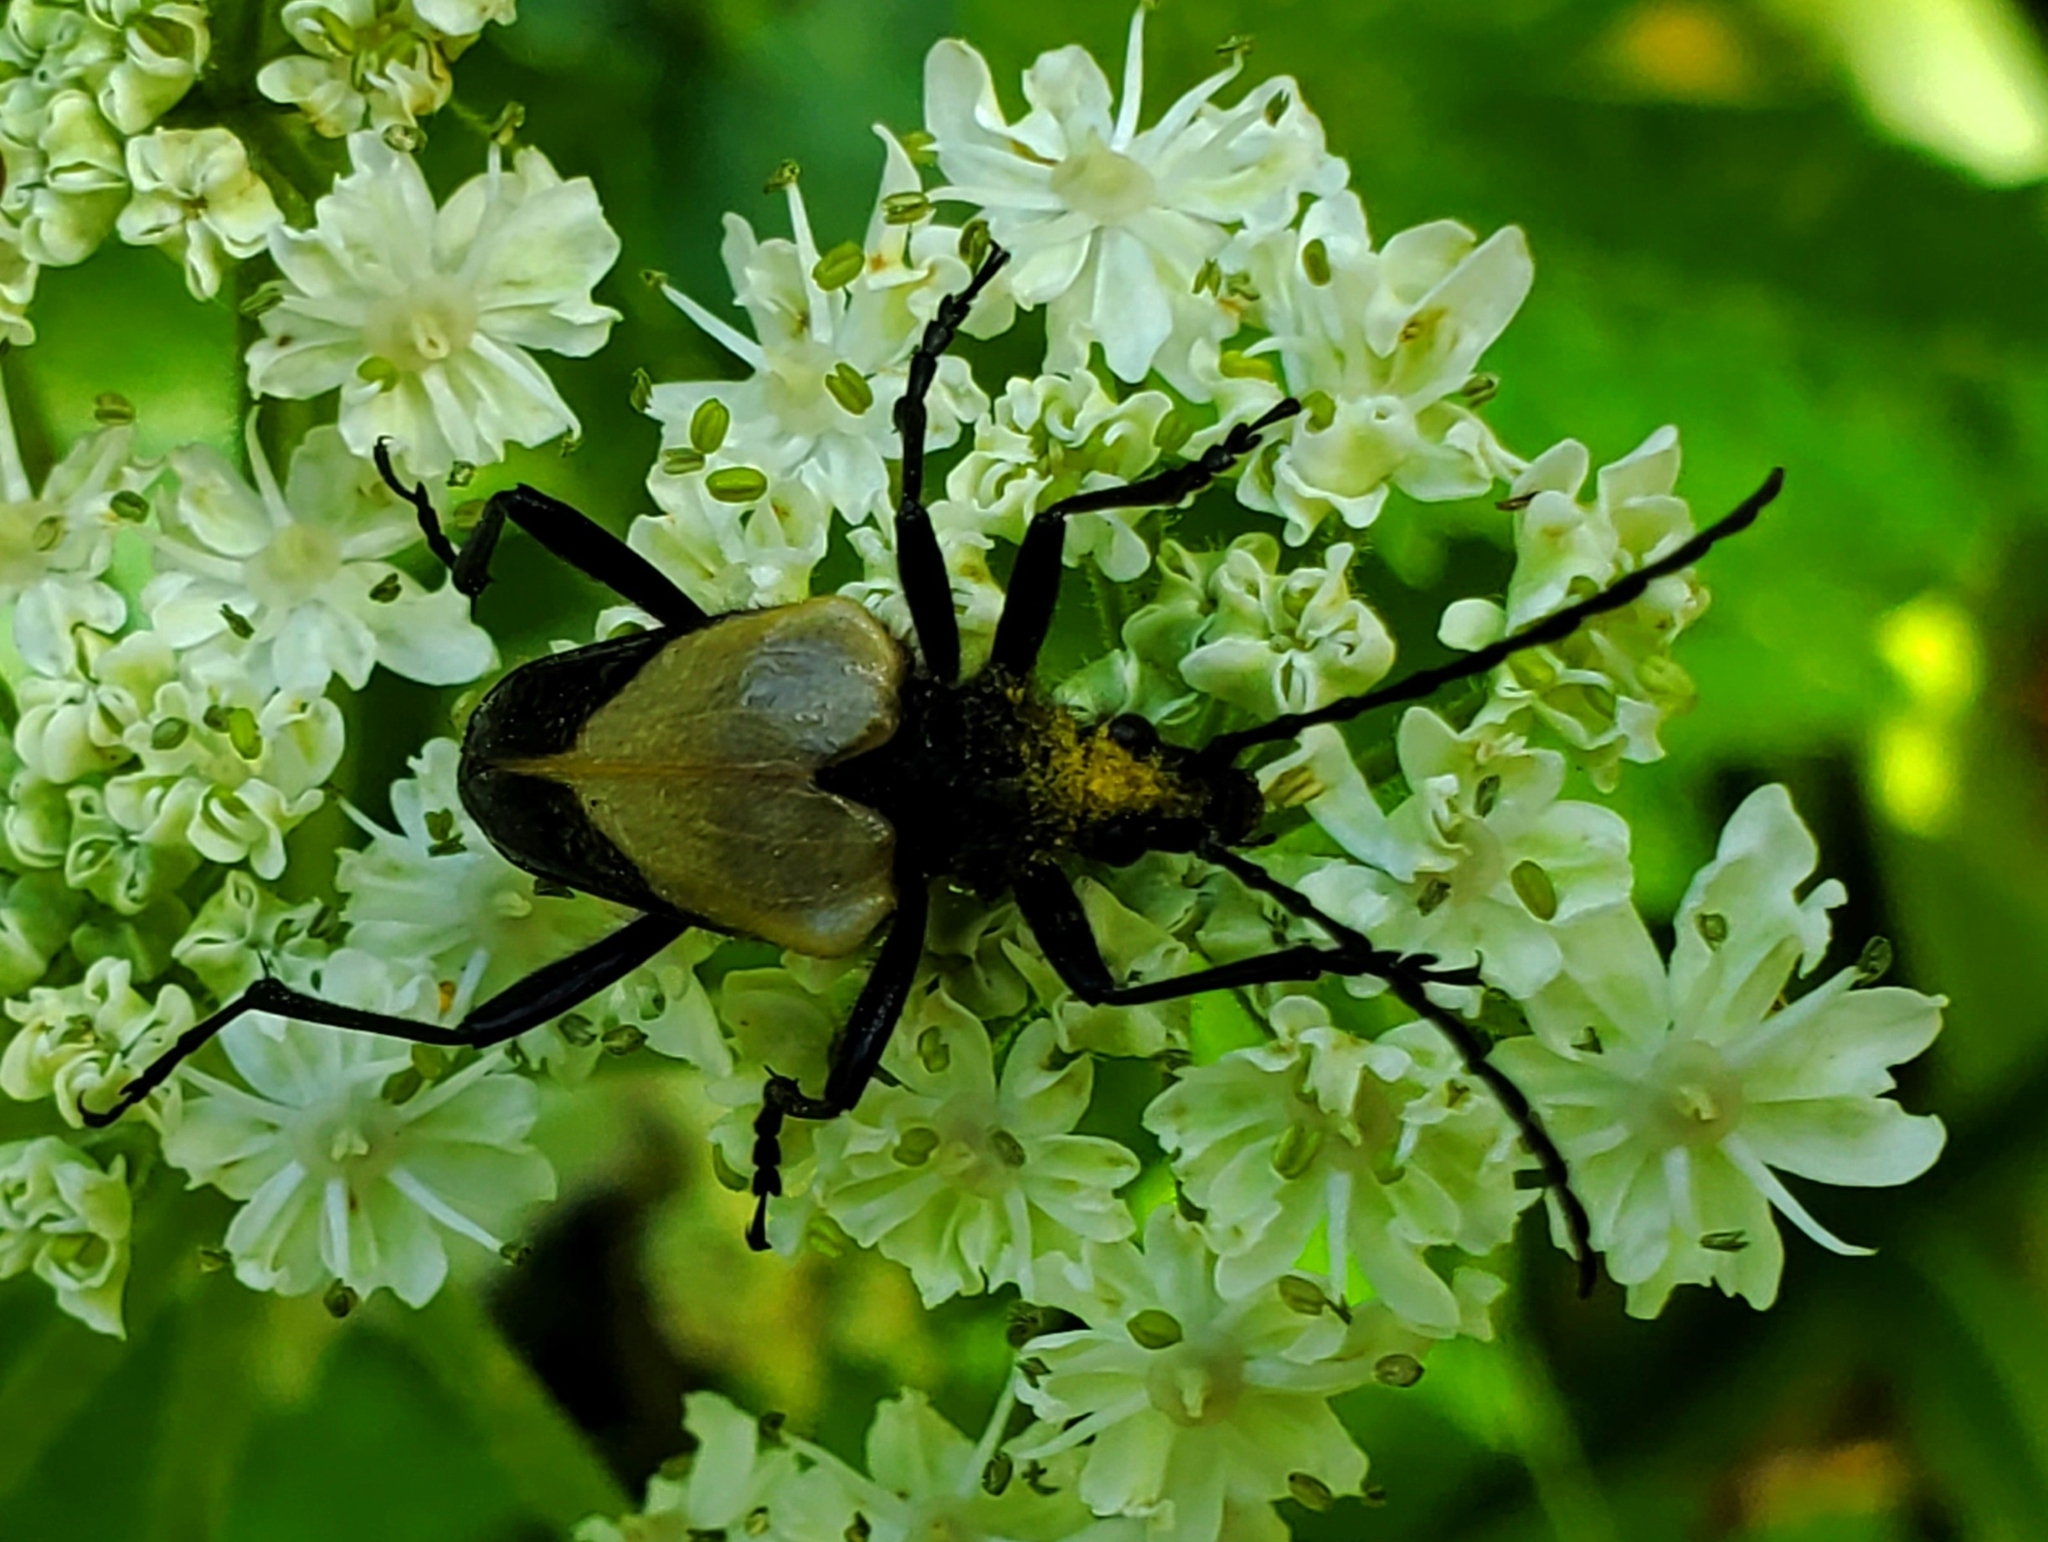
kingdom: Animalia
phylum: Arthropoda
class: Insecta
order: Coleoptera
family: Cerambycidae
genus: Pachyta
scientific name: Pachyta armata
